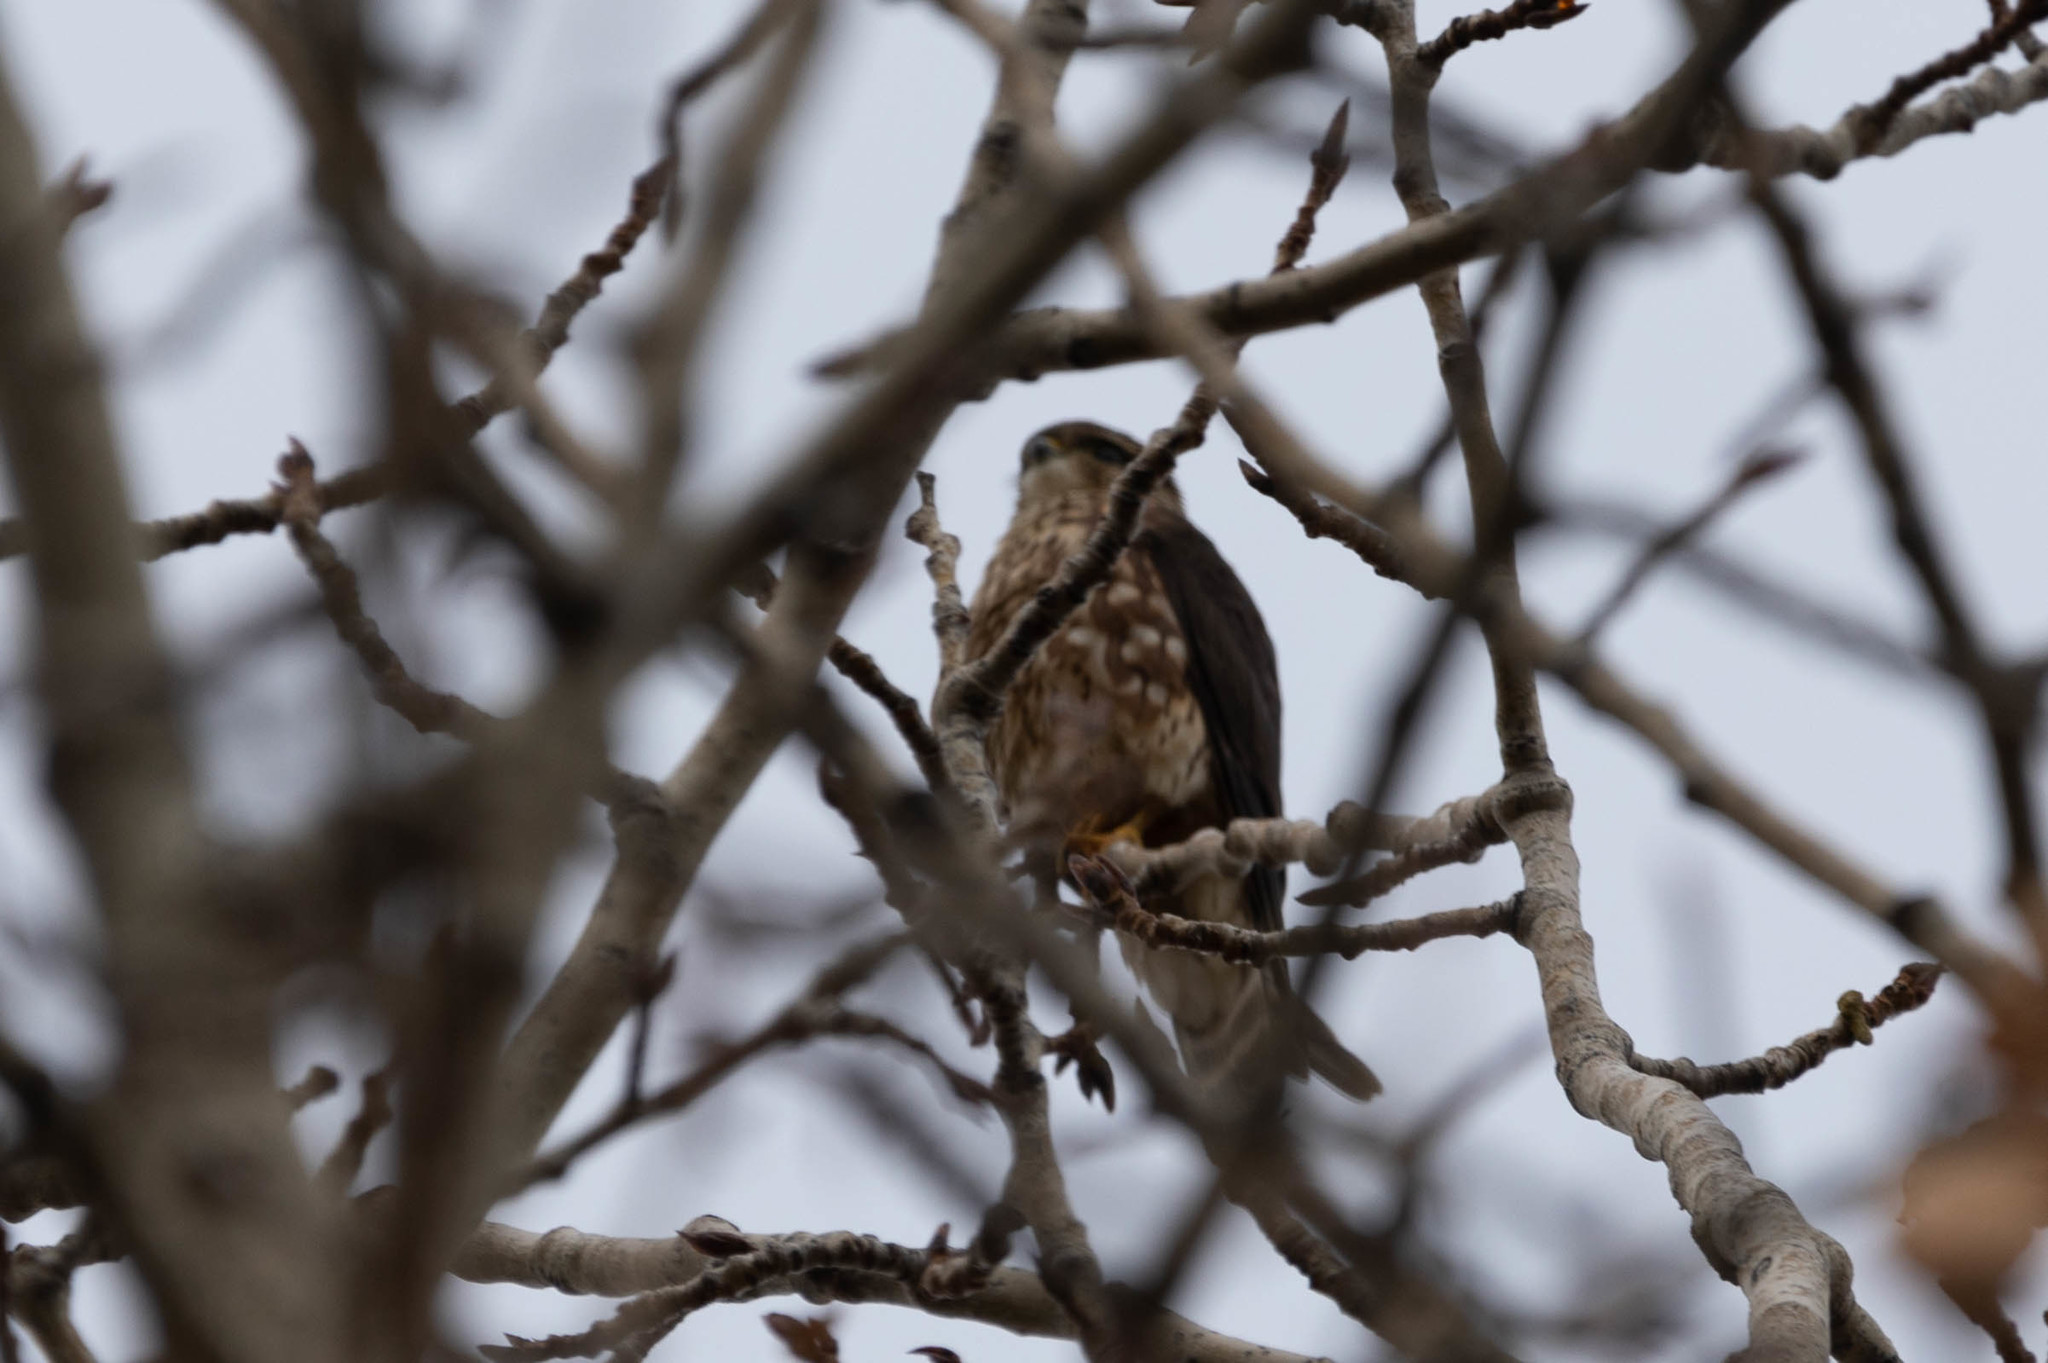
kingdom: Animalia
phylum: Chordata
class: Aves
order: Falconiformes
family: Falconidae
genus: Falco
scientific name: Falco columbarius
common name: Merlin
